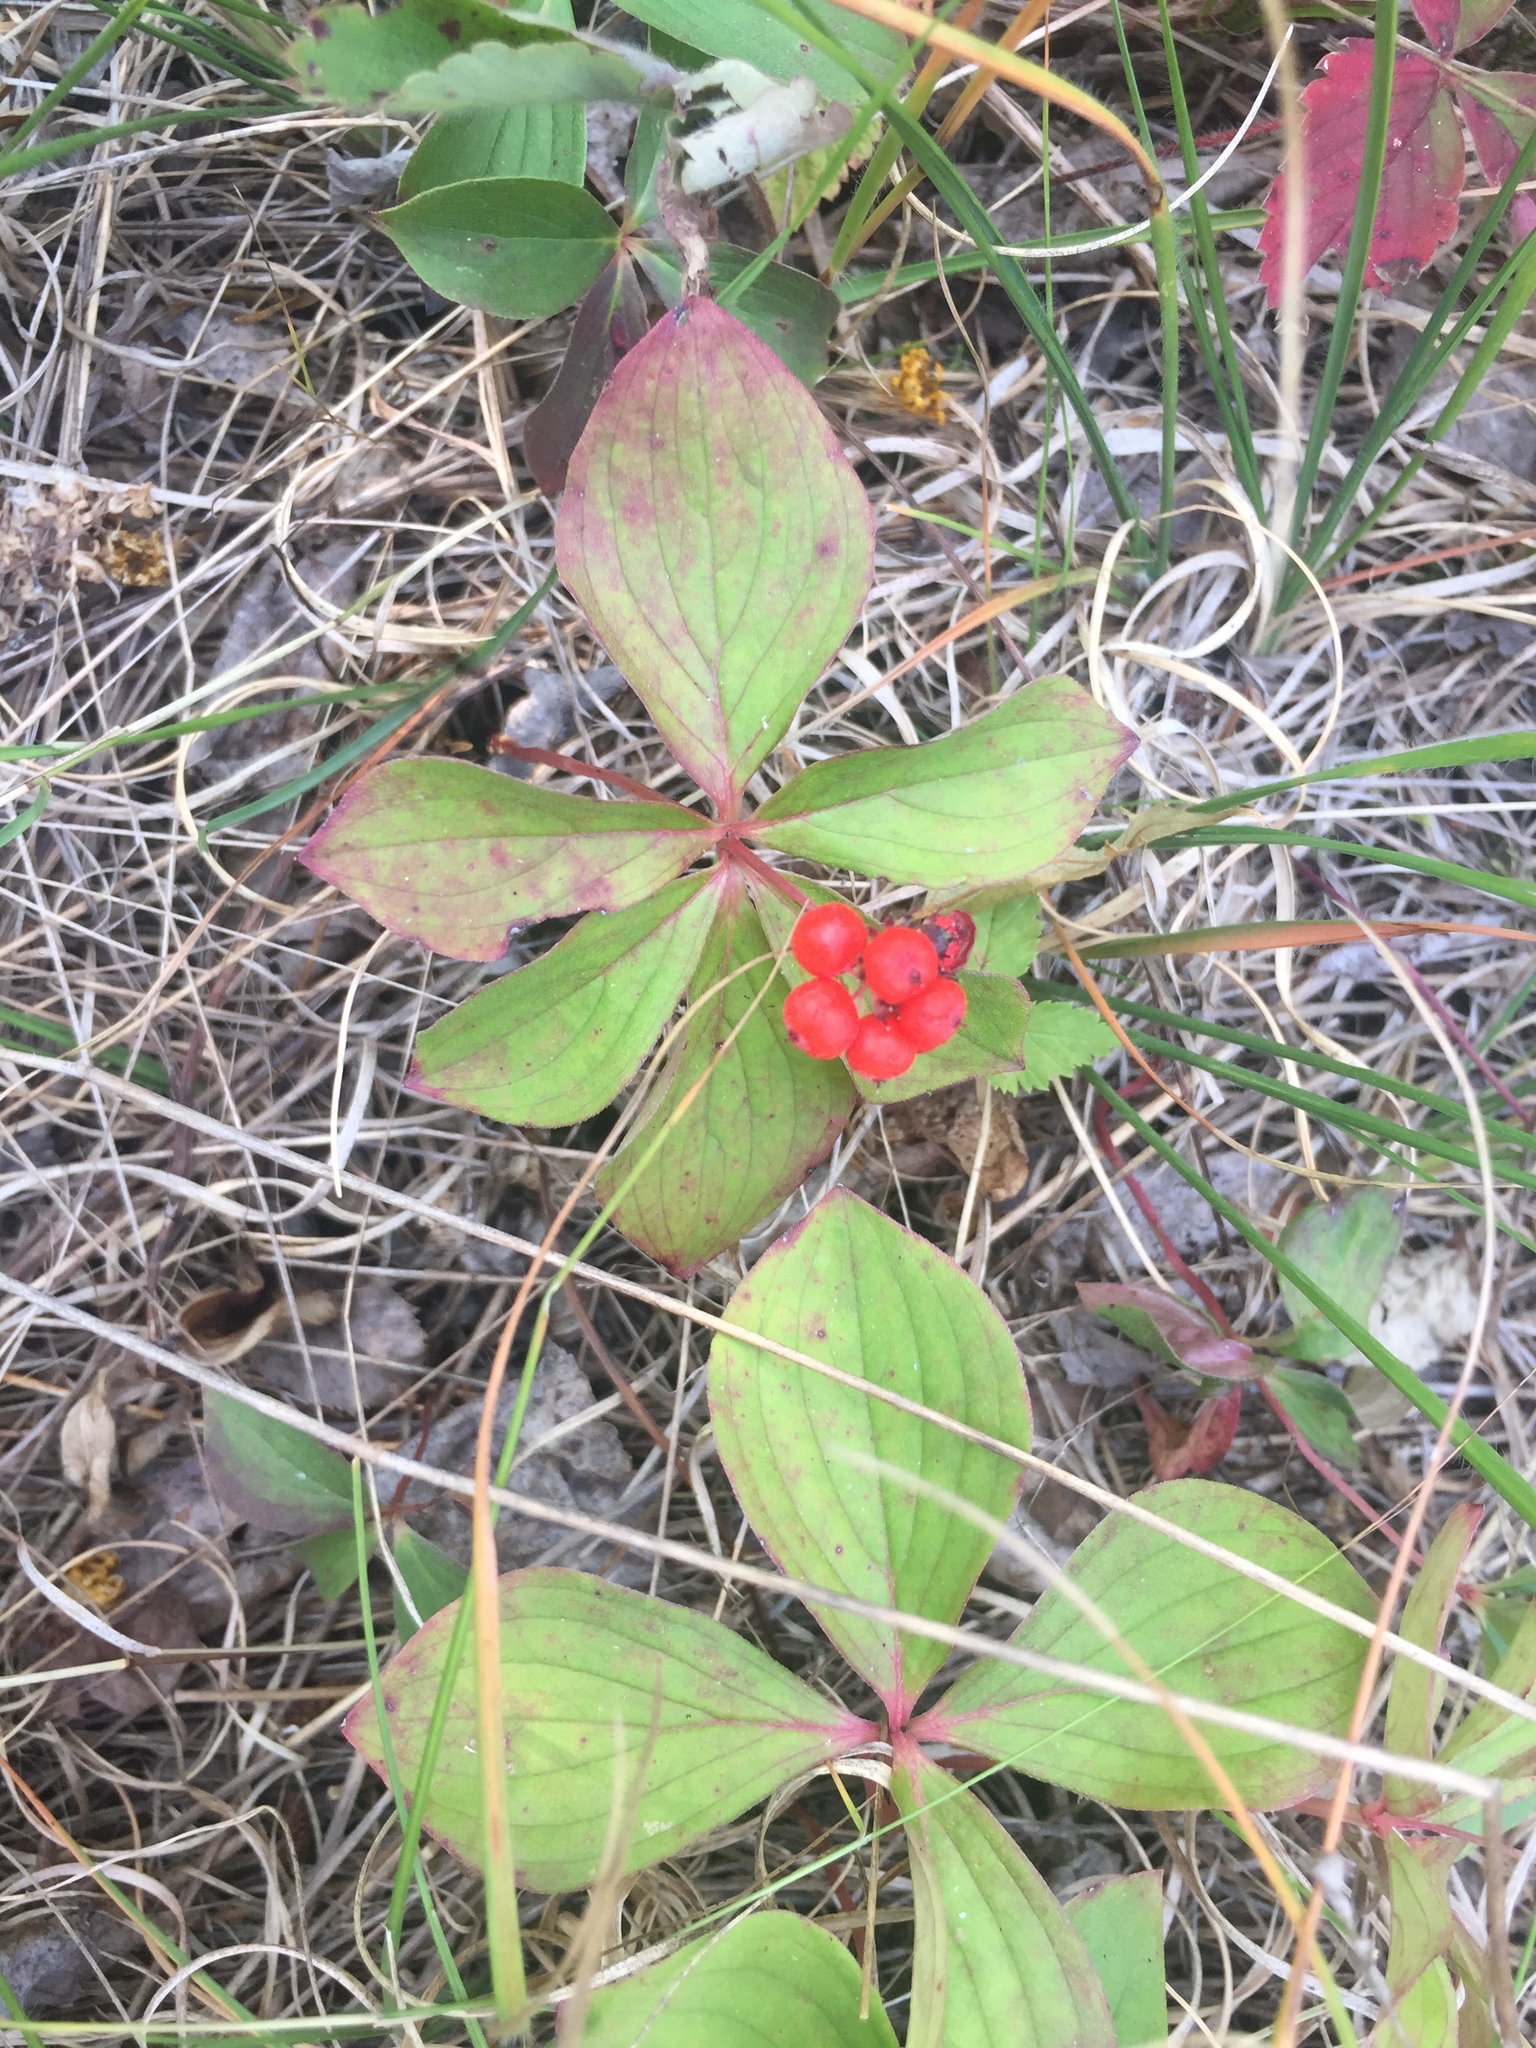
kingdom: Plantae
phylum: Tracheophyta
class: Magnoliopsida
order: Cornales
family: Cornaceae
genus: Cornus
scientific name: Cornus canadensis
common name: Creeping dogwood
